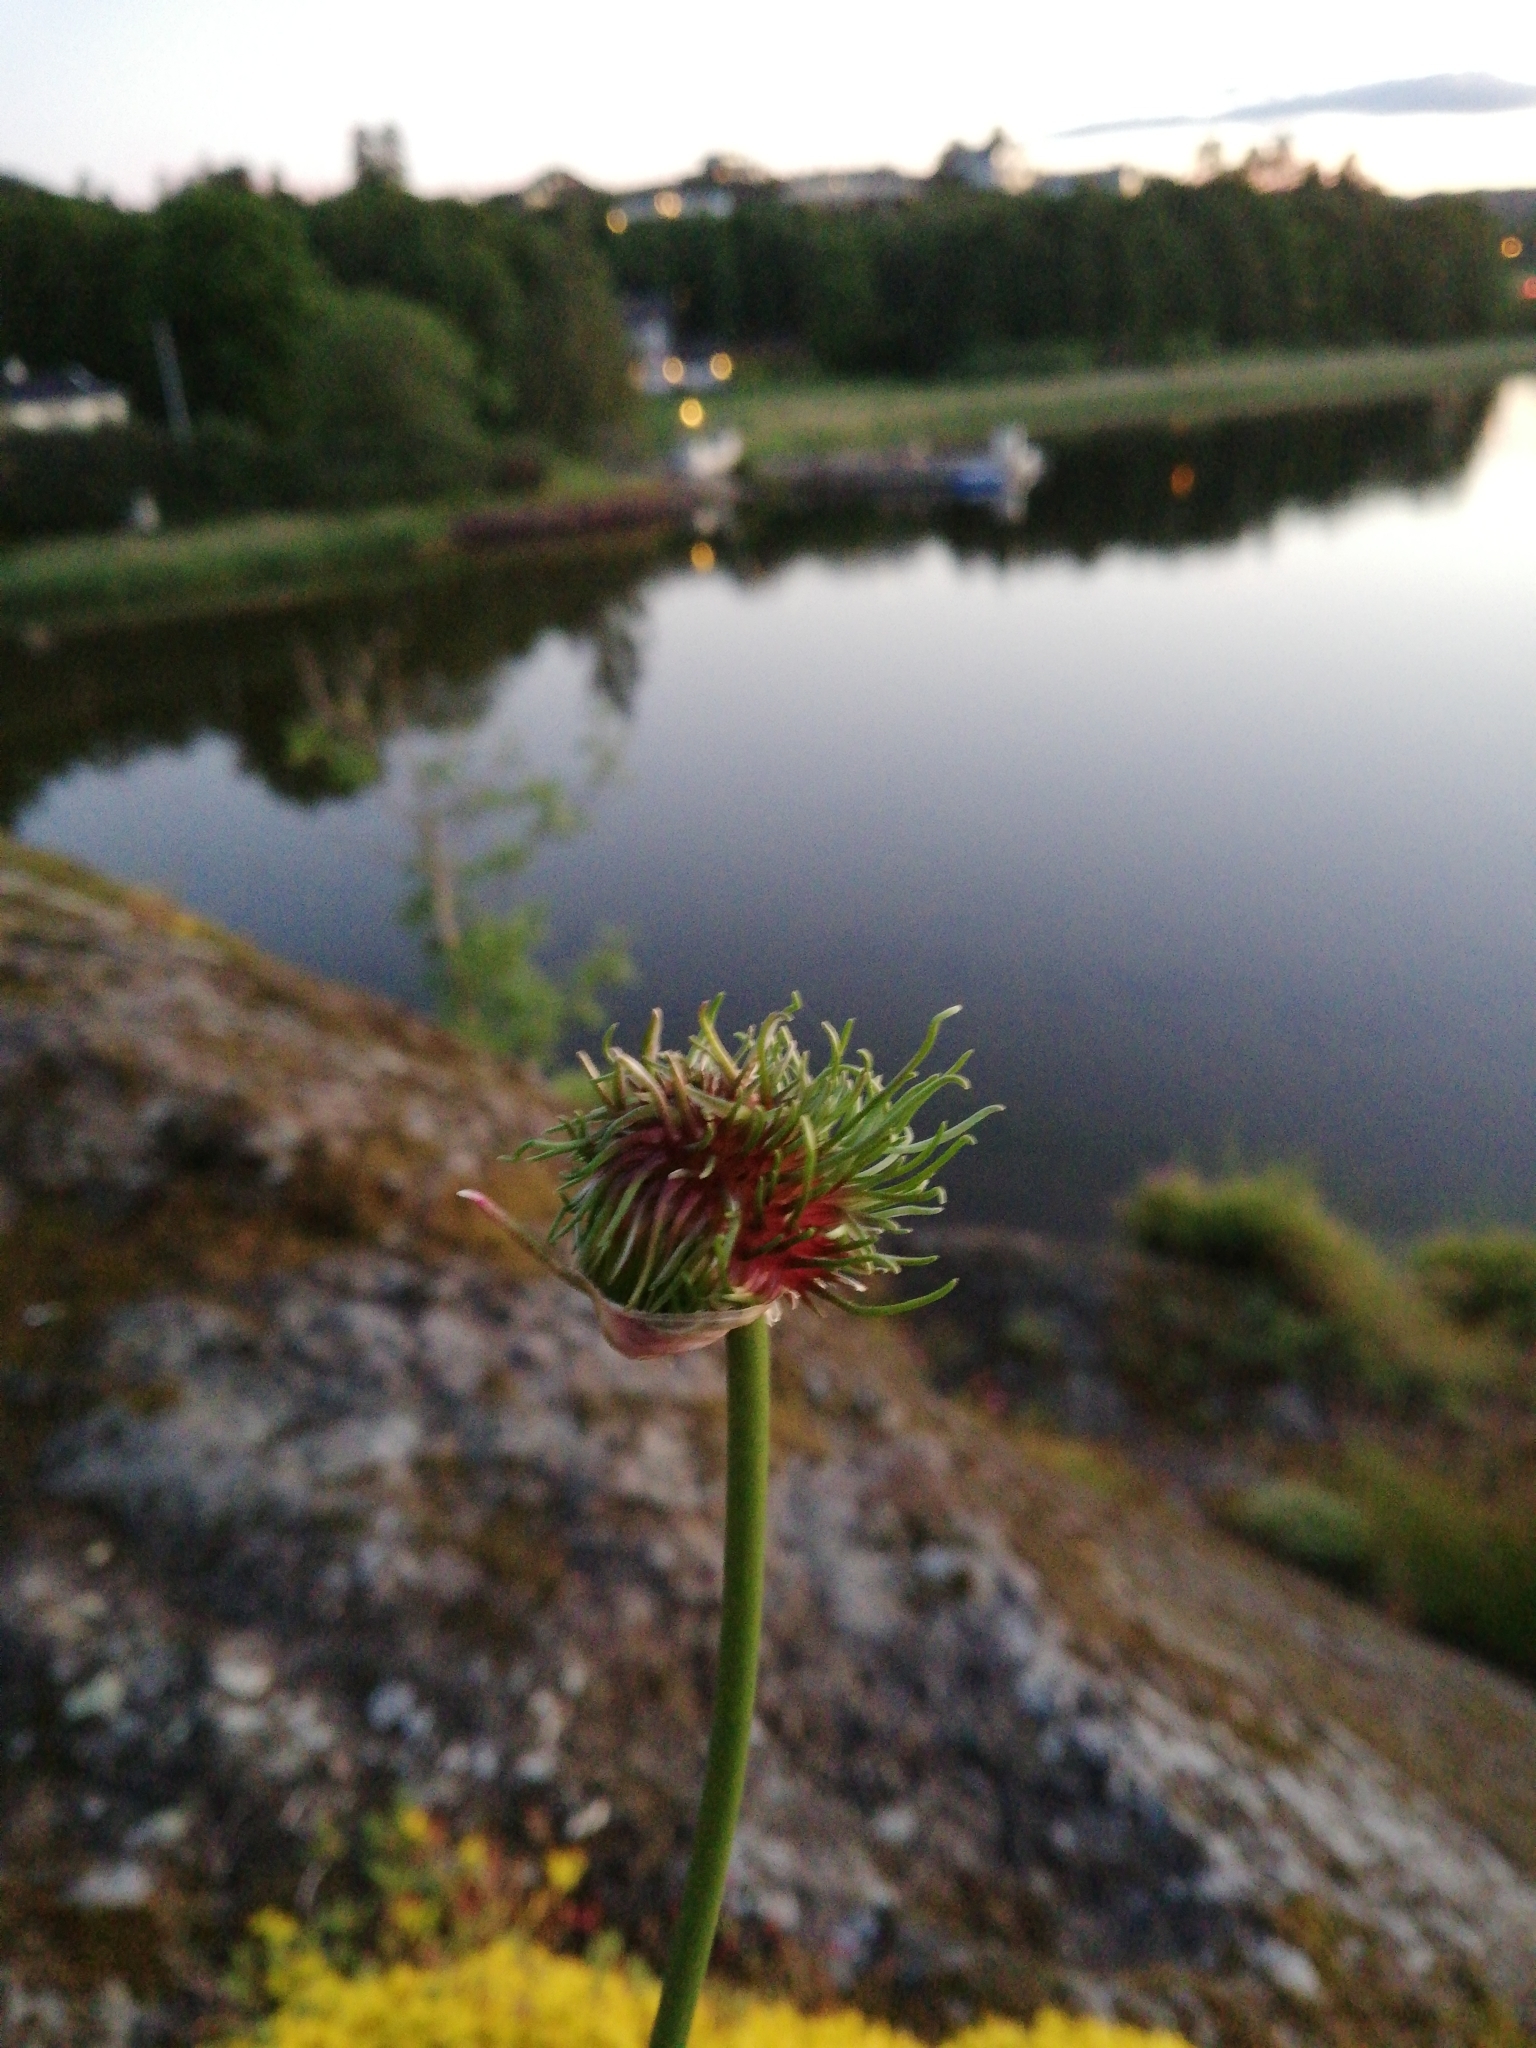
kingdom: Plantae
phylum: Tracheophyta
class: Liliopsida
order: Asparagales
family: Amaryllidaceae
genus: Allium
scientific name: Allium vineale
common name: Crow garlic
